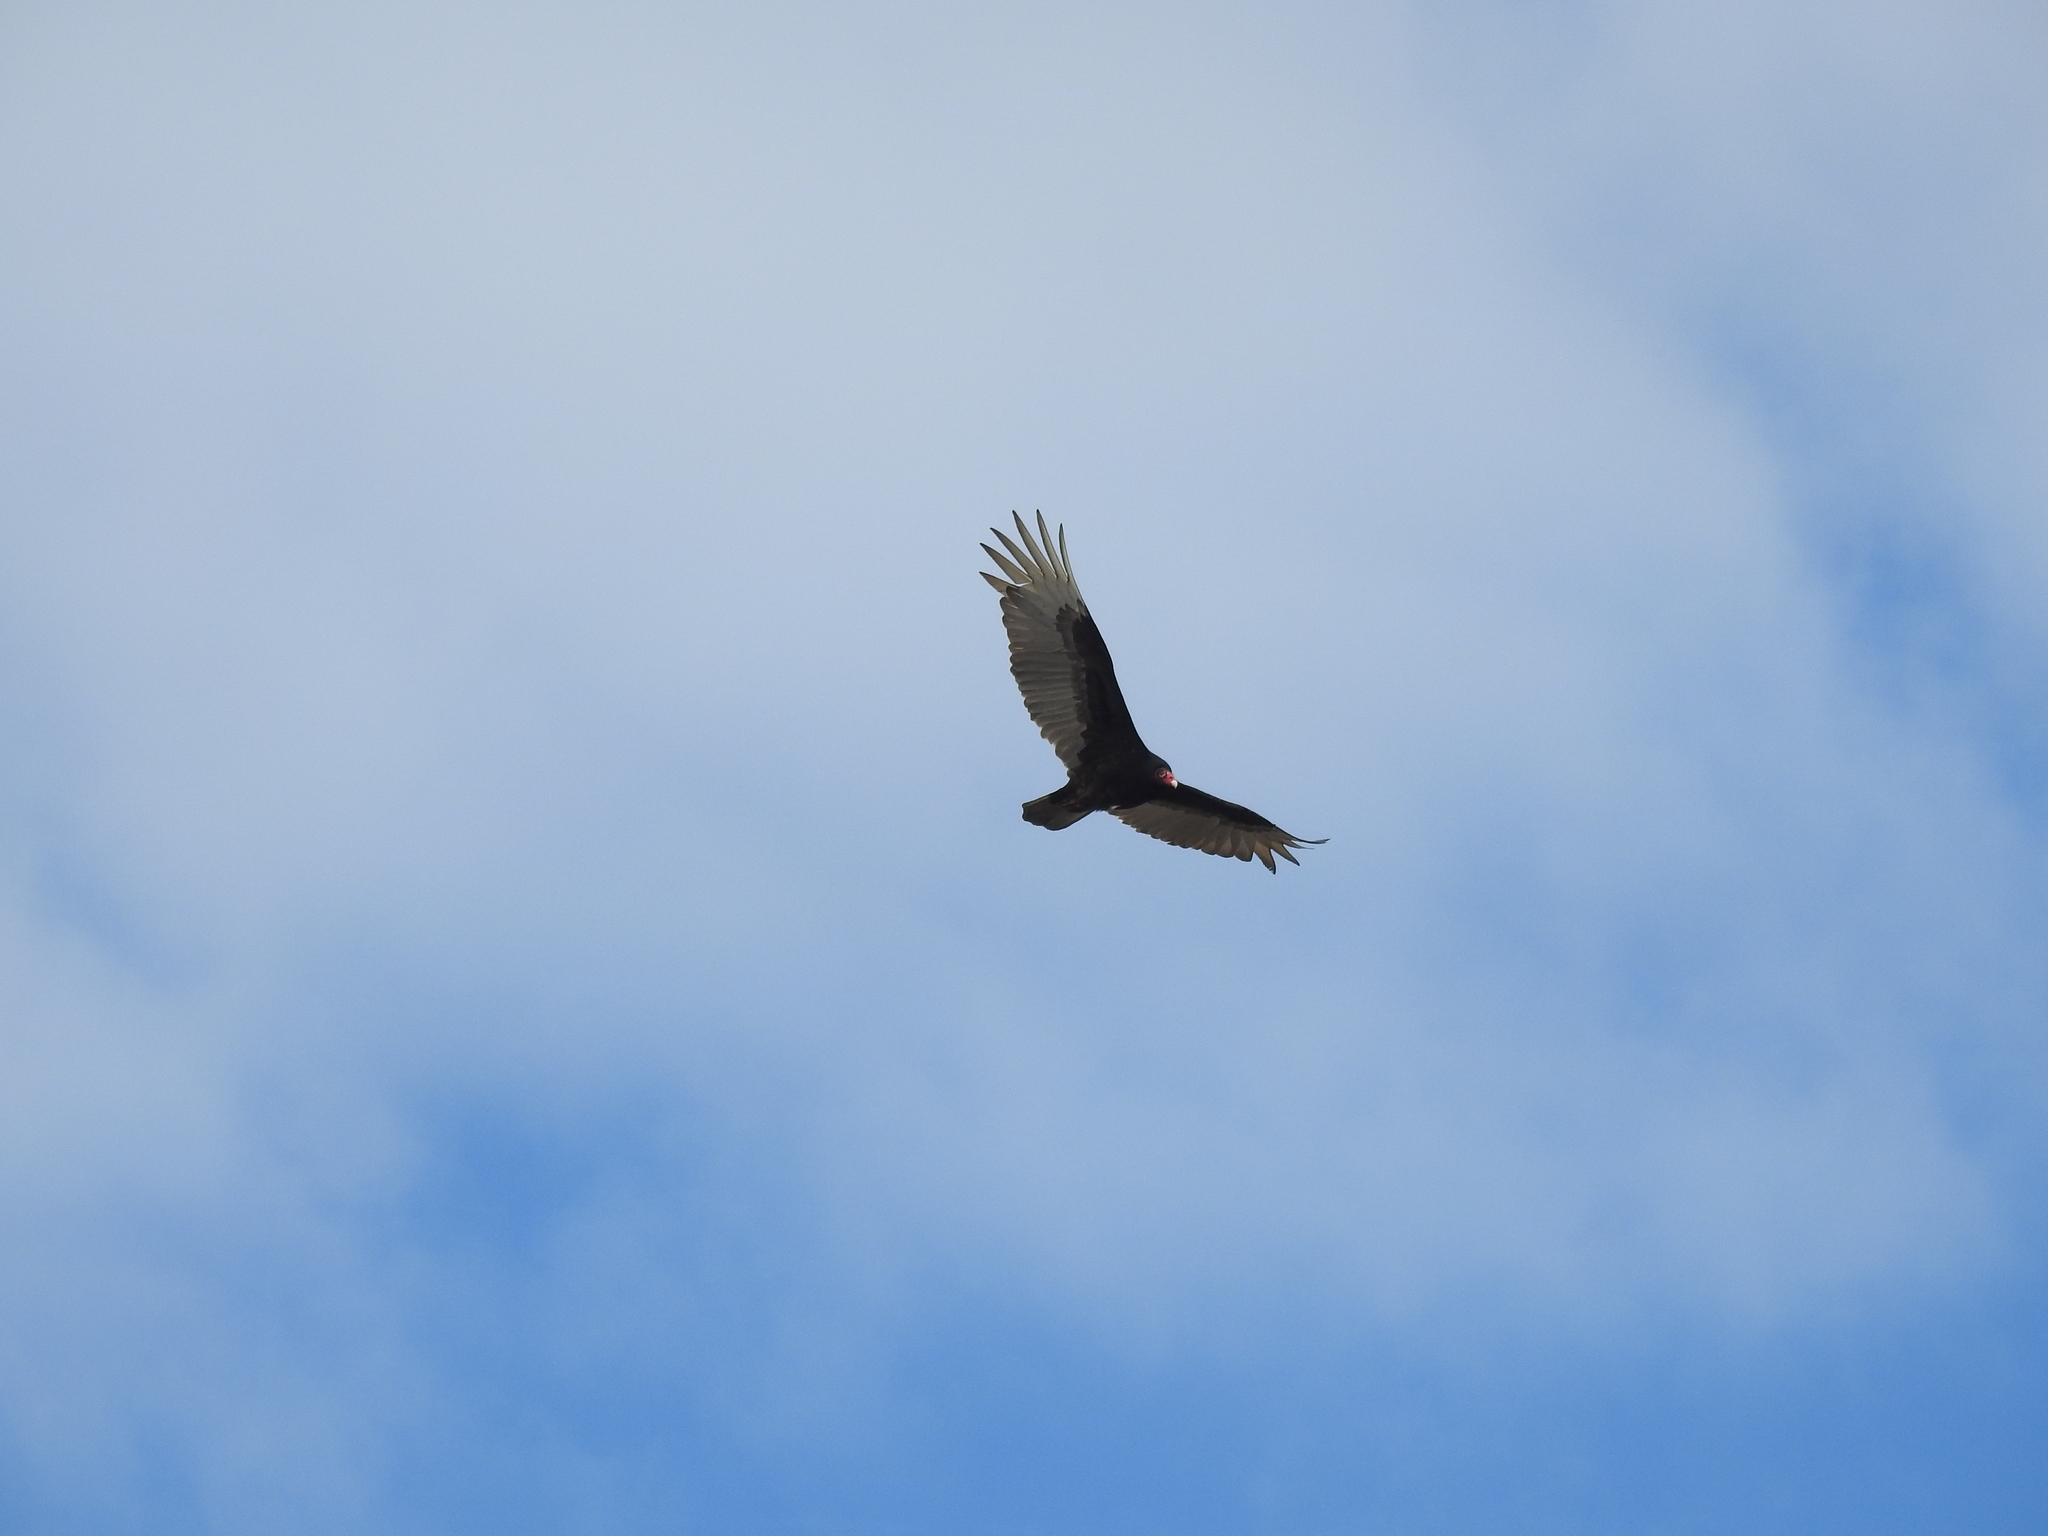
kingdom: Animalia
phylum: Chordata
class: Aves
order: Accipitriformes
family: Cathartidae
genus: Cathartes
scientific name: Cathartes aura
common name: Turkey vulture
